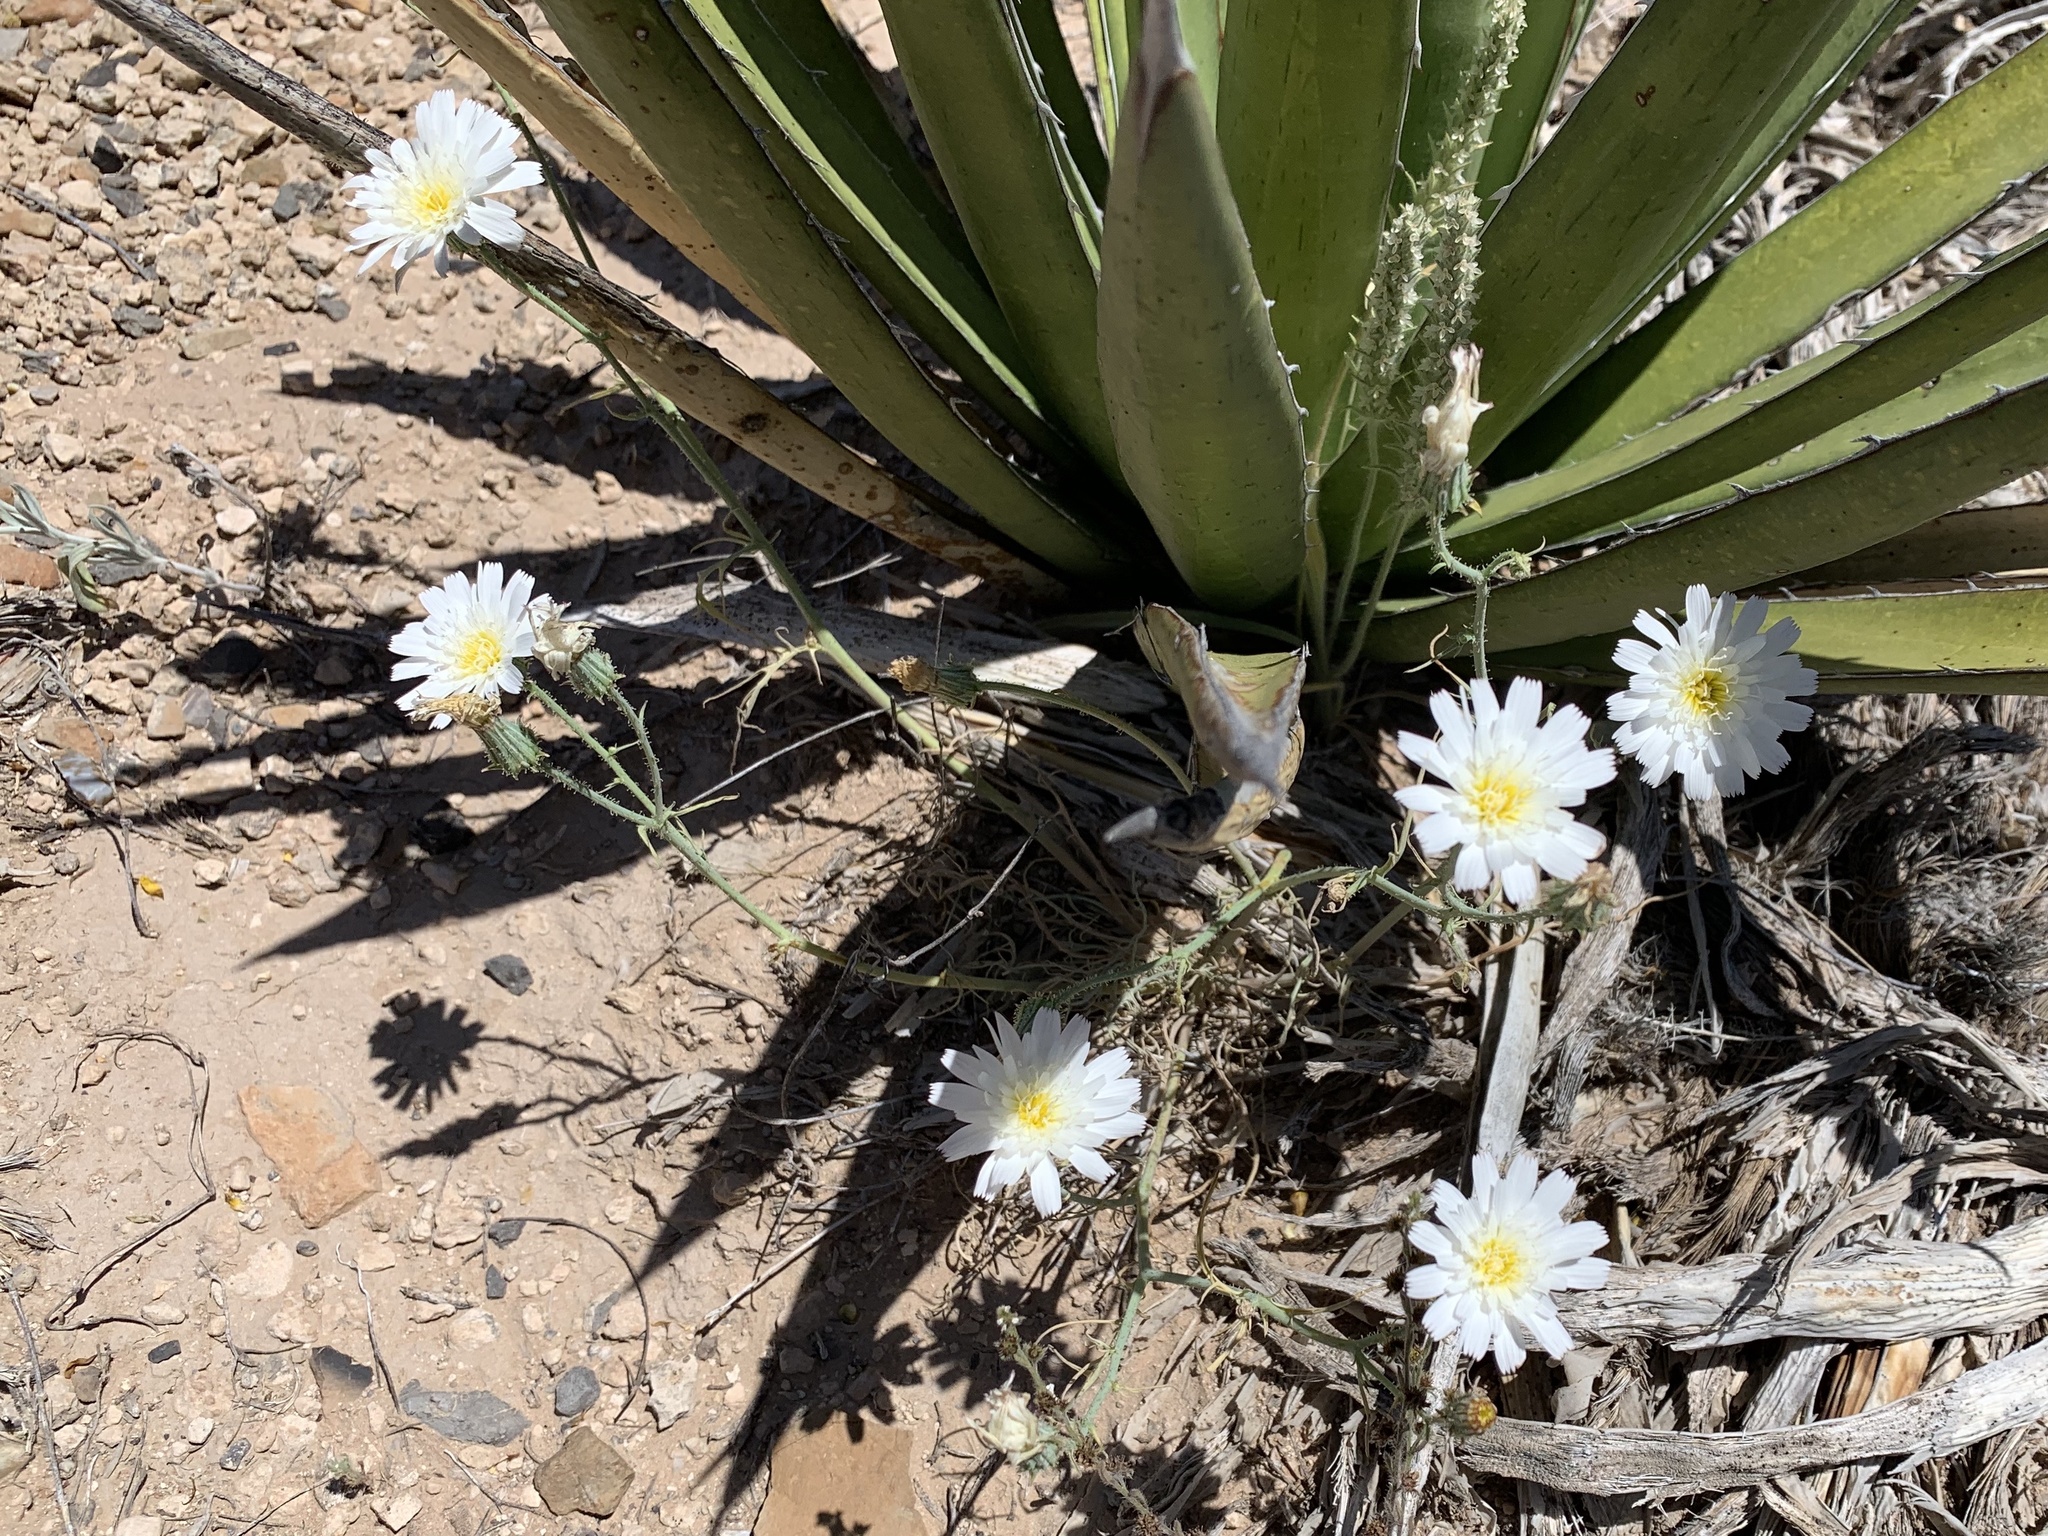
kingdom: Plantae
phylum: Tracheophyta
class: Magnoliopsida
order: Asterales
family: Asteraceae
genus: Calycoseris
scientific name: Calycoseris wrightii
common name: White tackstem
